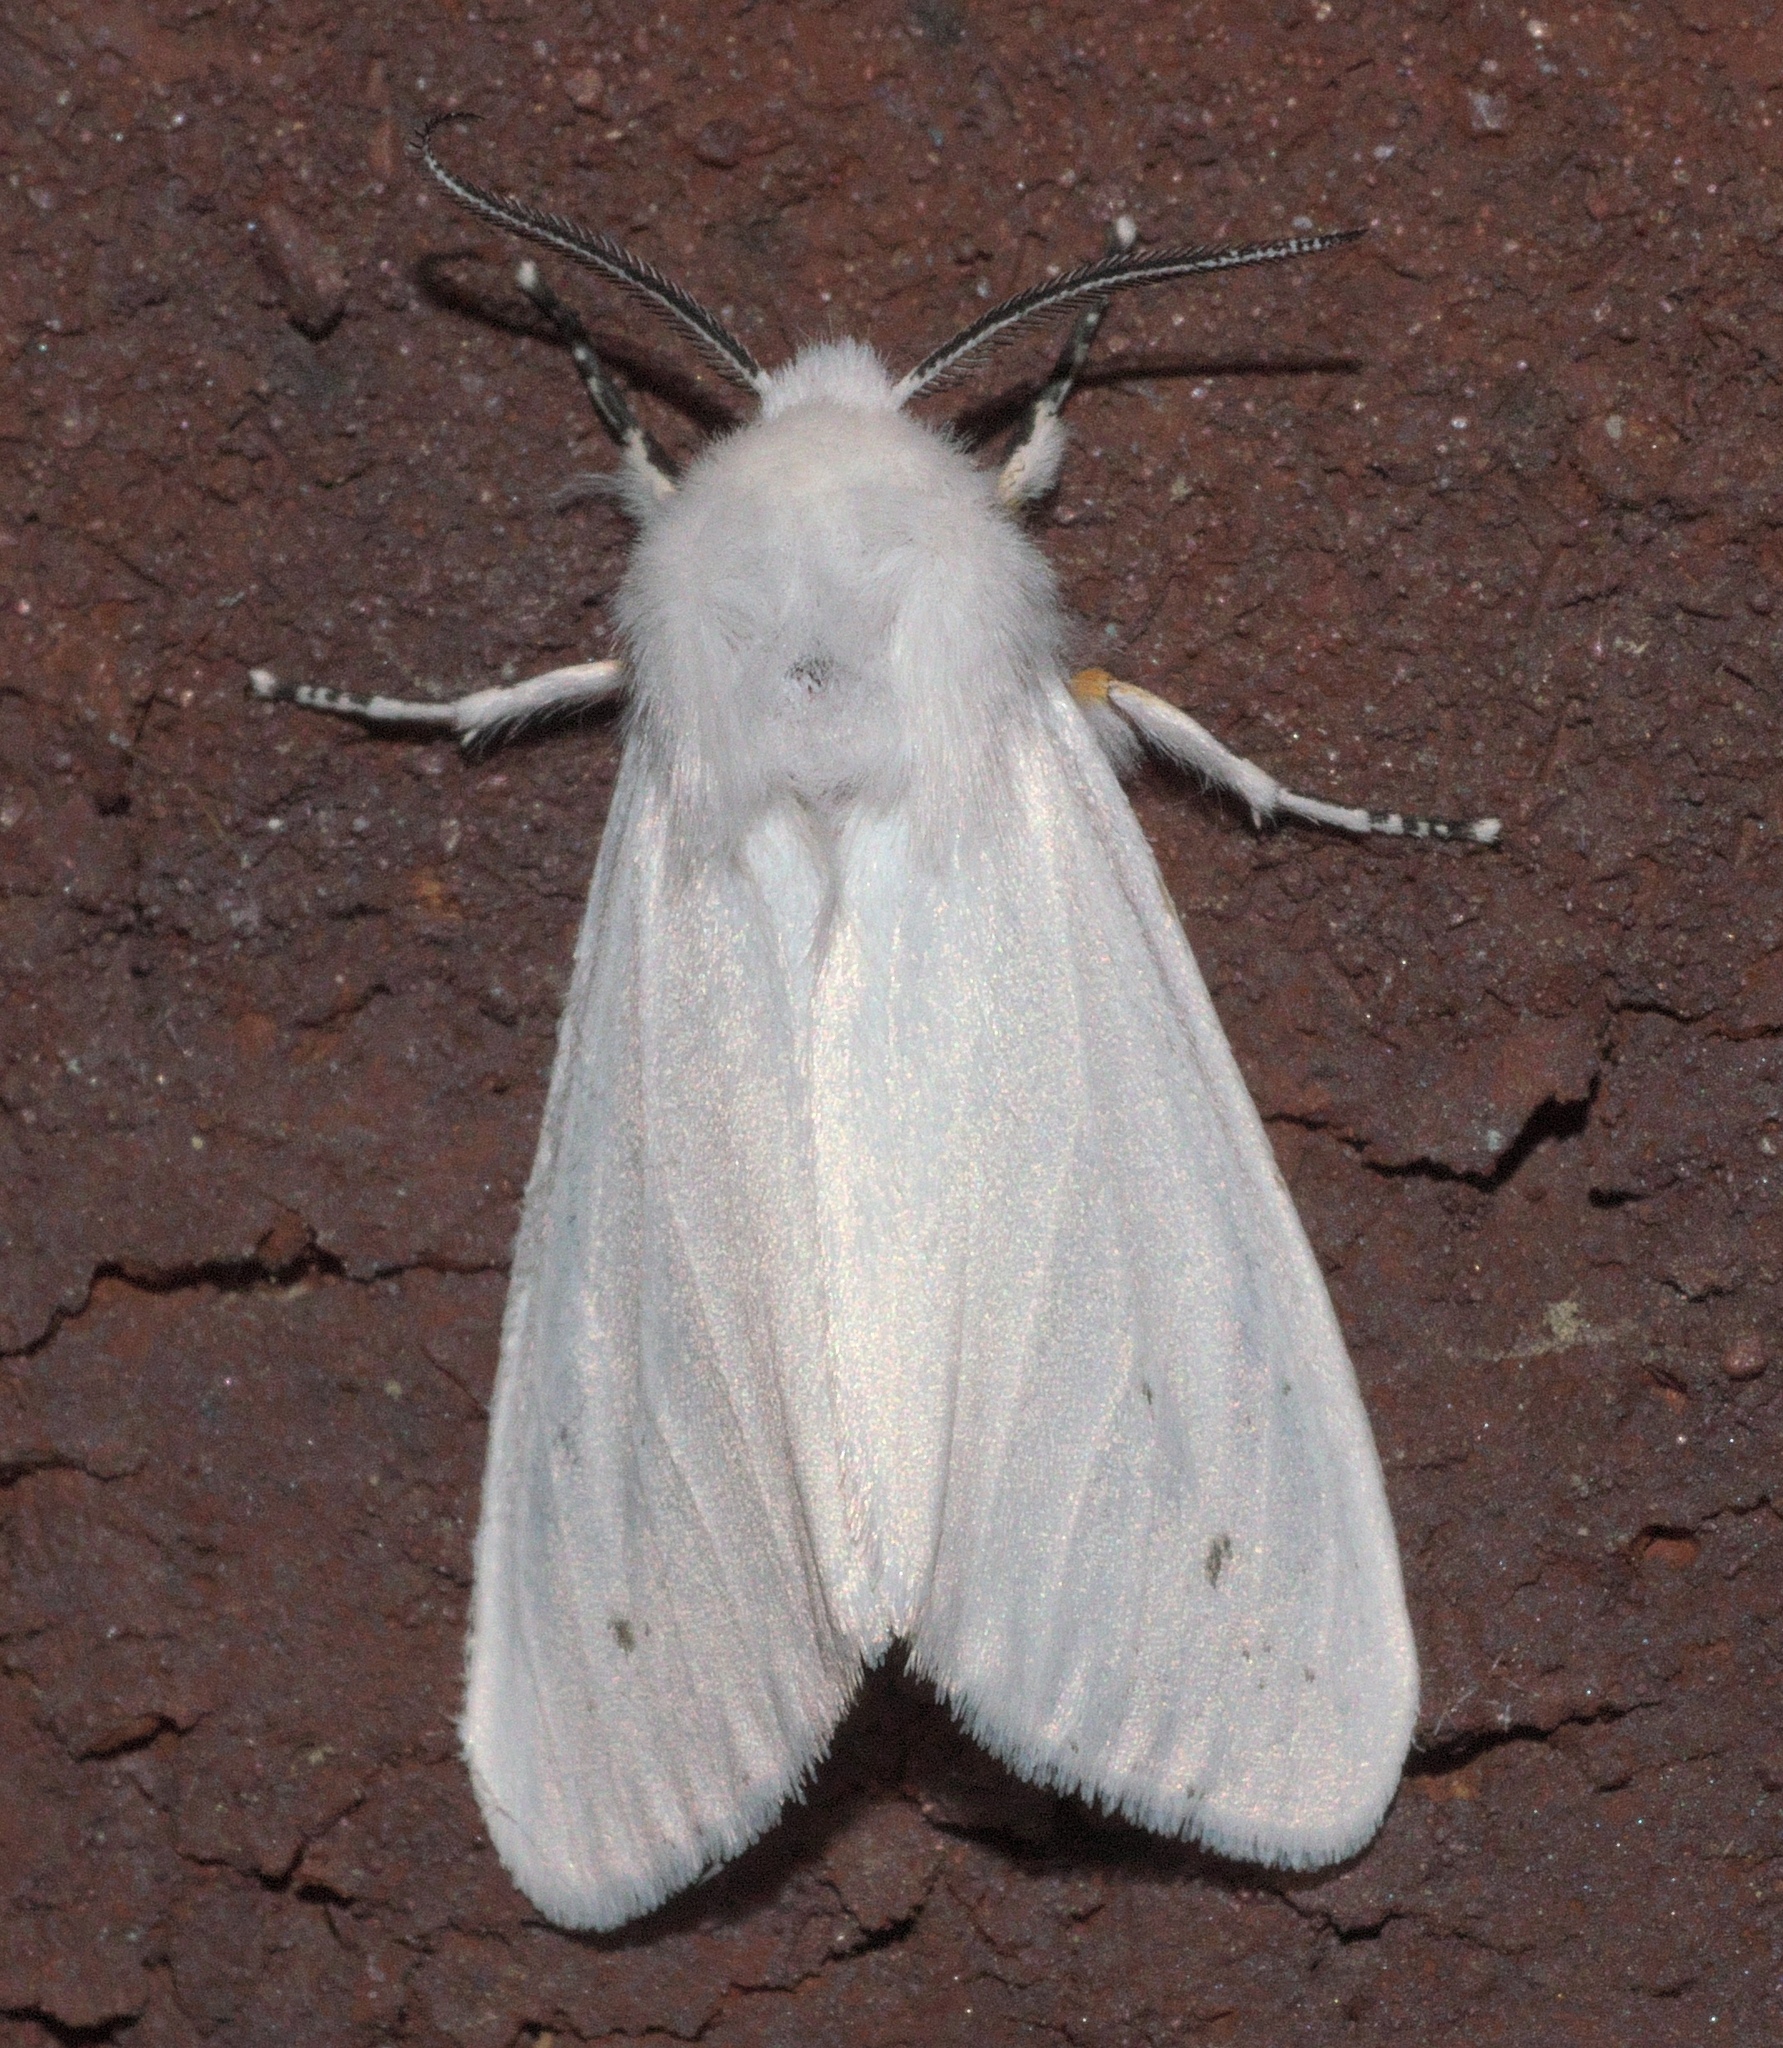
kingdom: Animalia
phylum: Arthropoda
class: Insecta
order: Lepidoptera
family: Erebidae
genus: Hyphantria
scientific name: Hyphantria cunea
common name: American white moth
